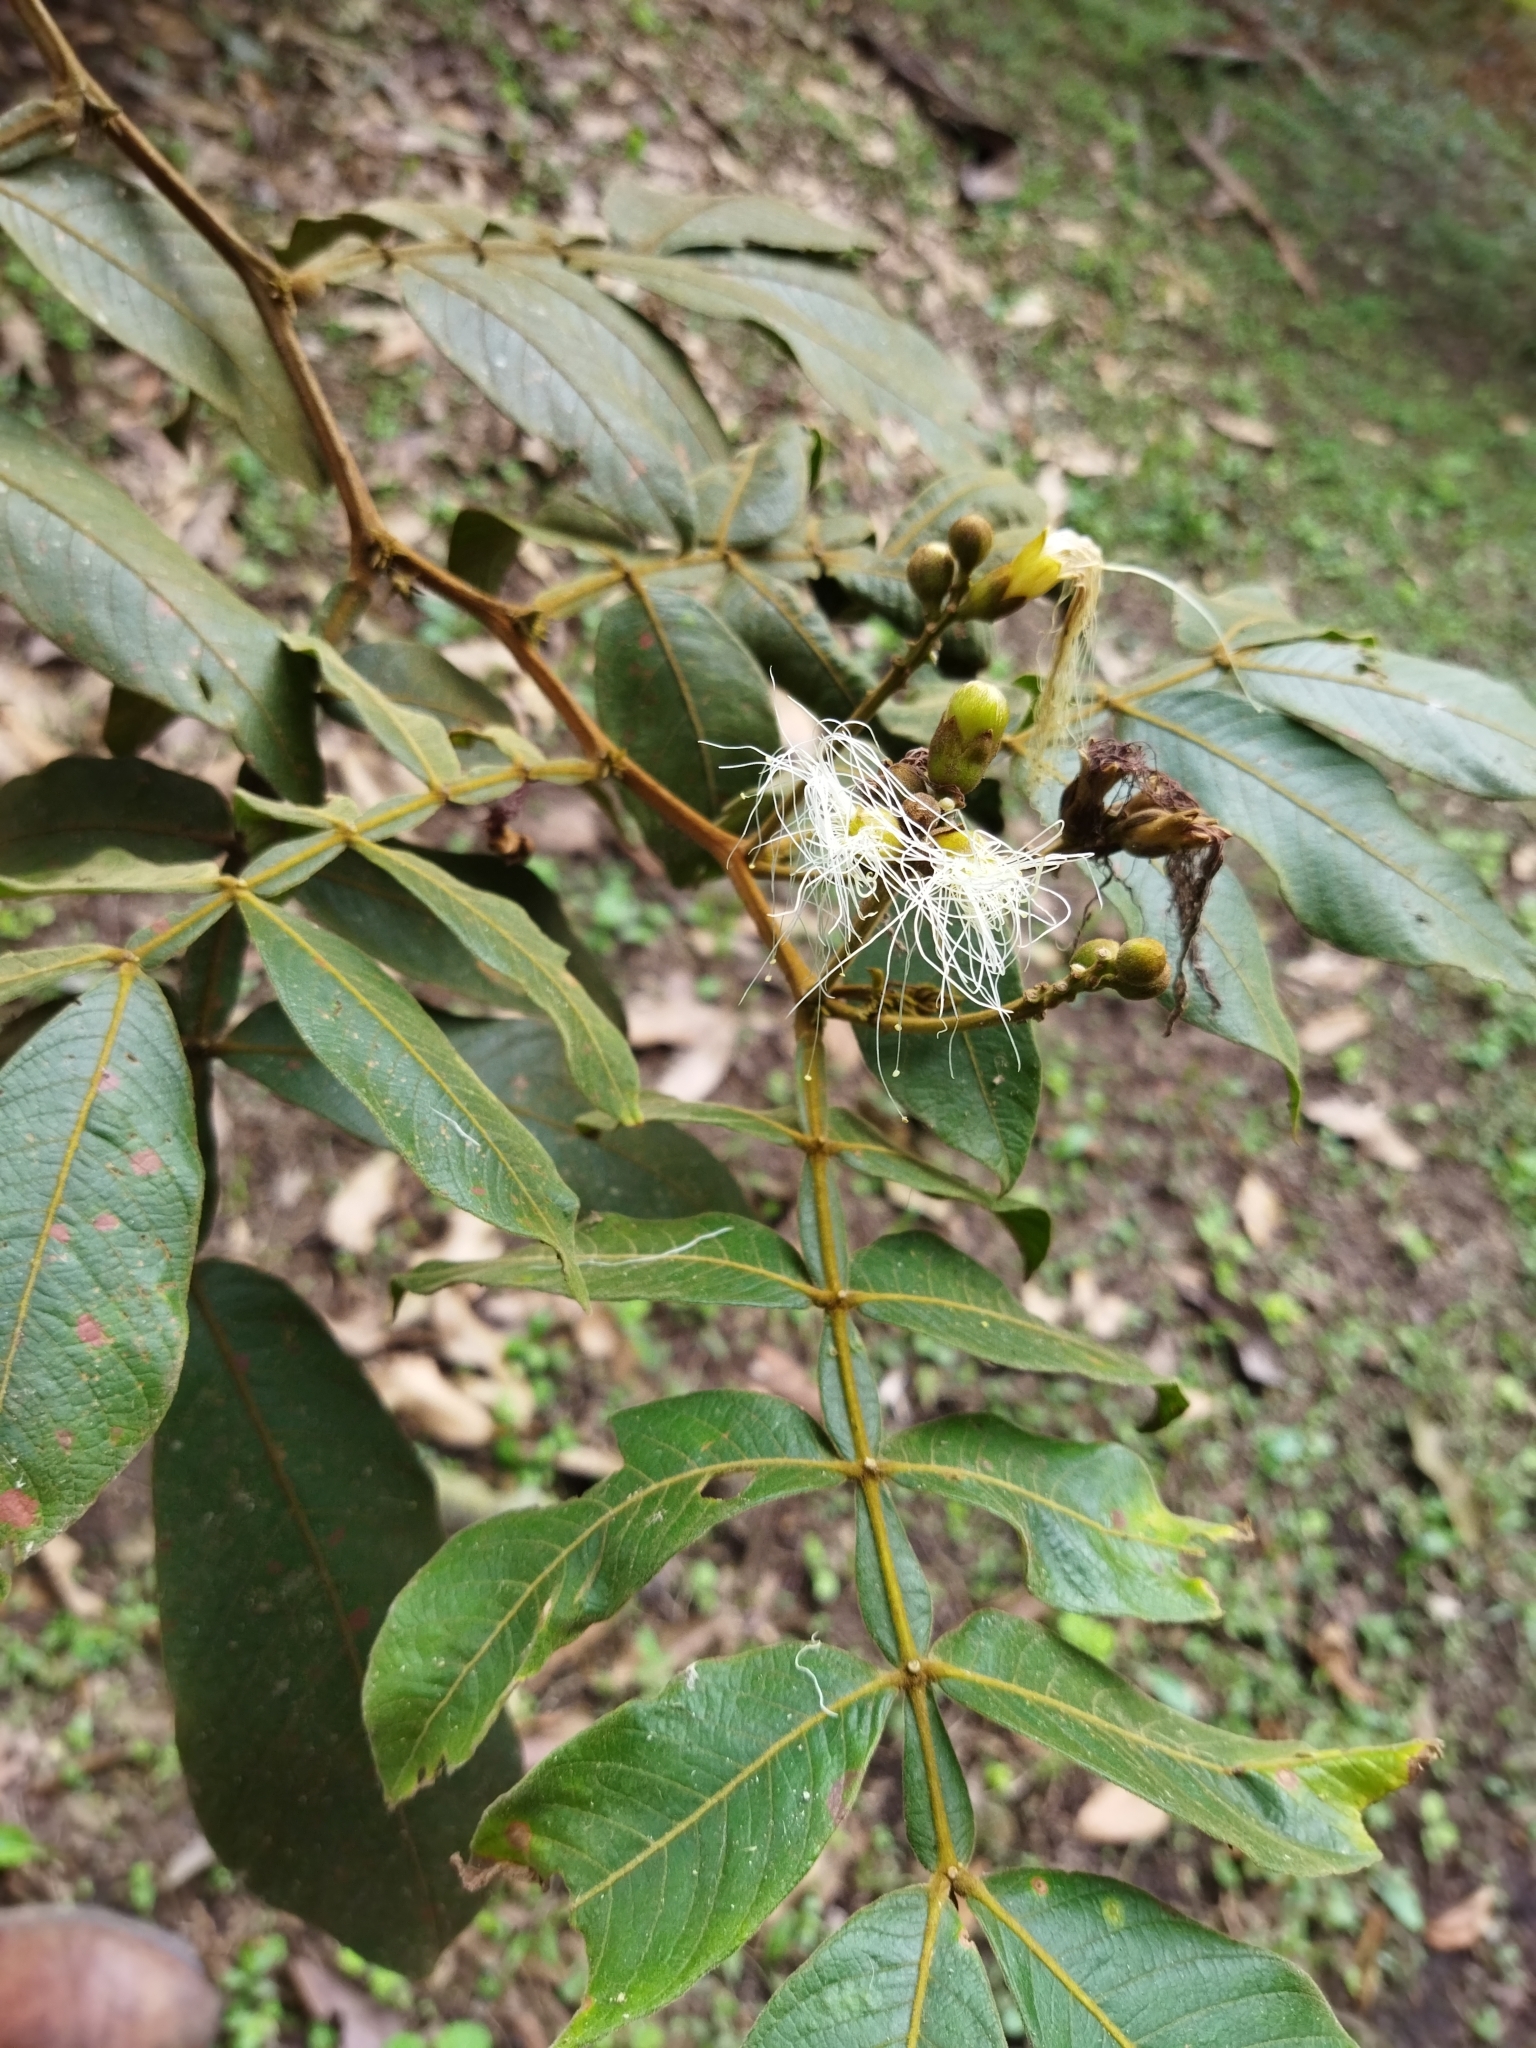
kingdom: Plantae
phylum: Tracheophyta
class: Magnoliopsida
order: Fabales
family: Fabaceae
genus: Inga
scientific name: Inga edulis
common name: Ice cream bean
